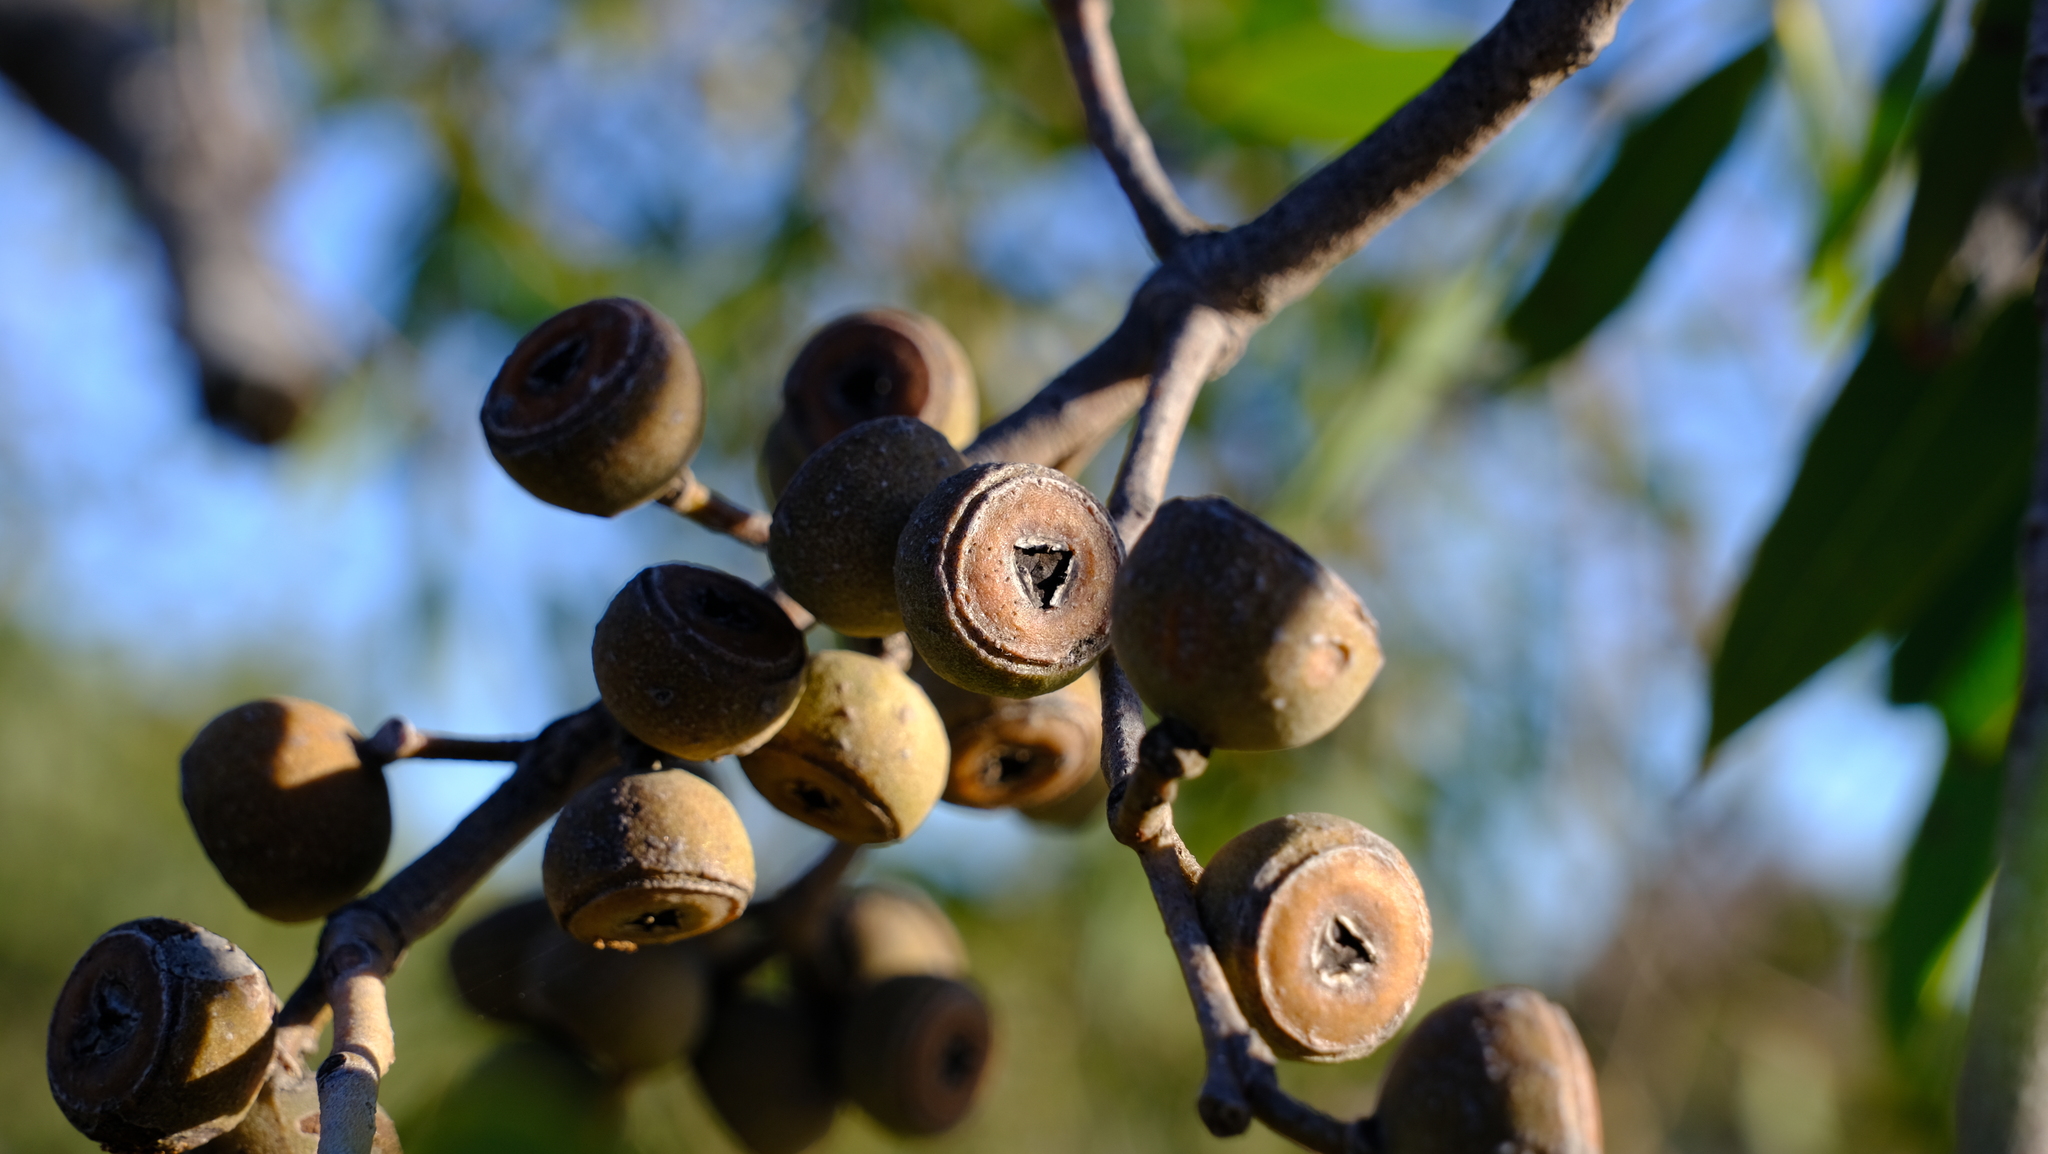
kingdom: Plantae
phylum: Tracheophyta
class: Magnoliopsida
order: Myrtales
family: Myrtaceae
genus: Eucalyptus
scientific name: Eucalyptus todtiana
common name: Coastal blackbutt
